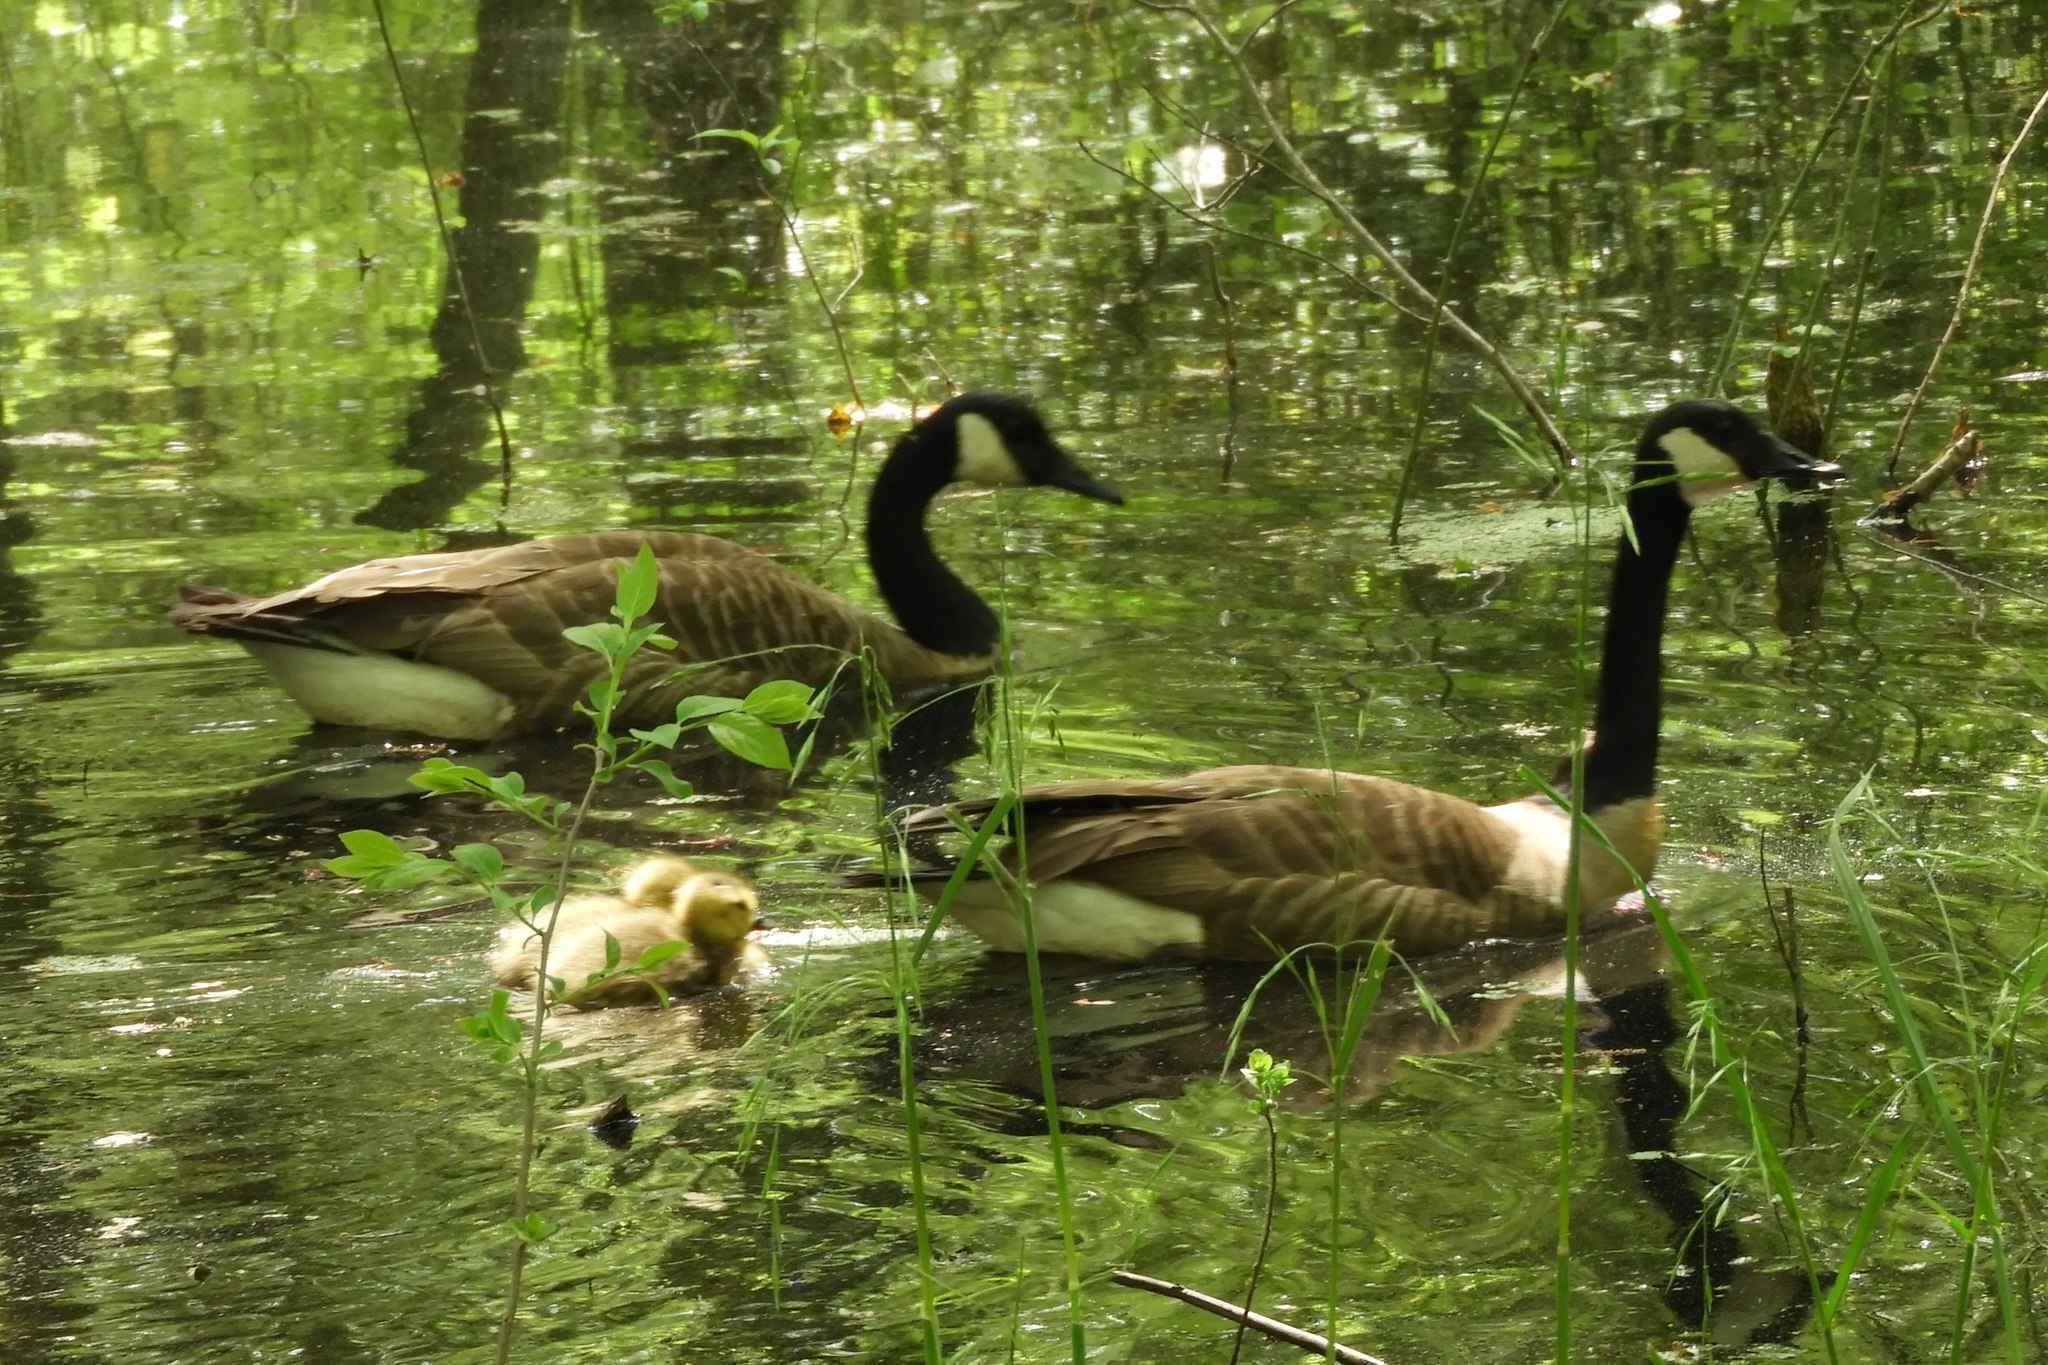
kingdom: Animalia
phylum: Chordata
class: Aves
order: Anseriformes
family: Anatidae
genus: Branta
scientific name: Branta canadensis
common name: Canada goose
